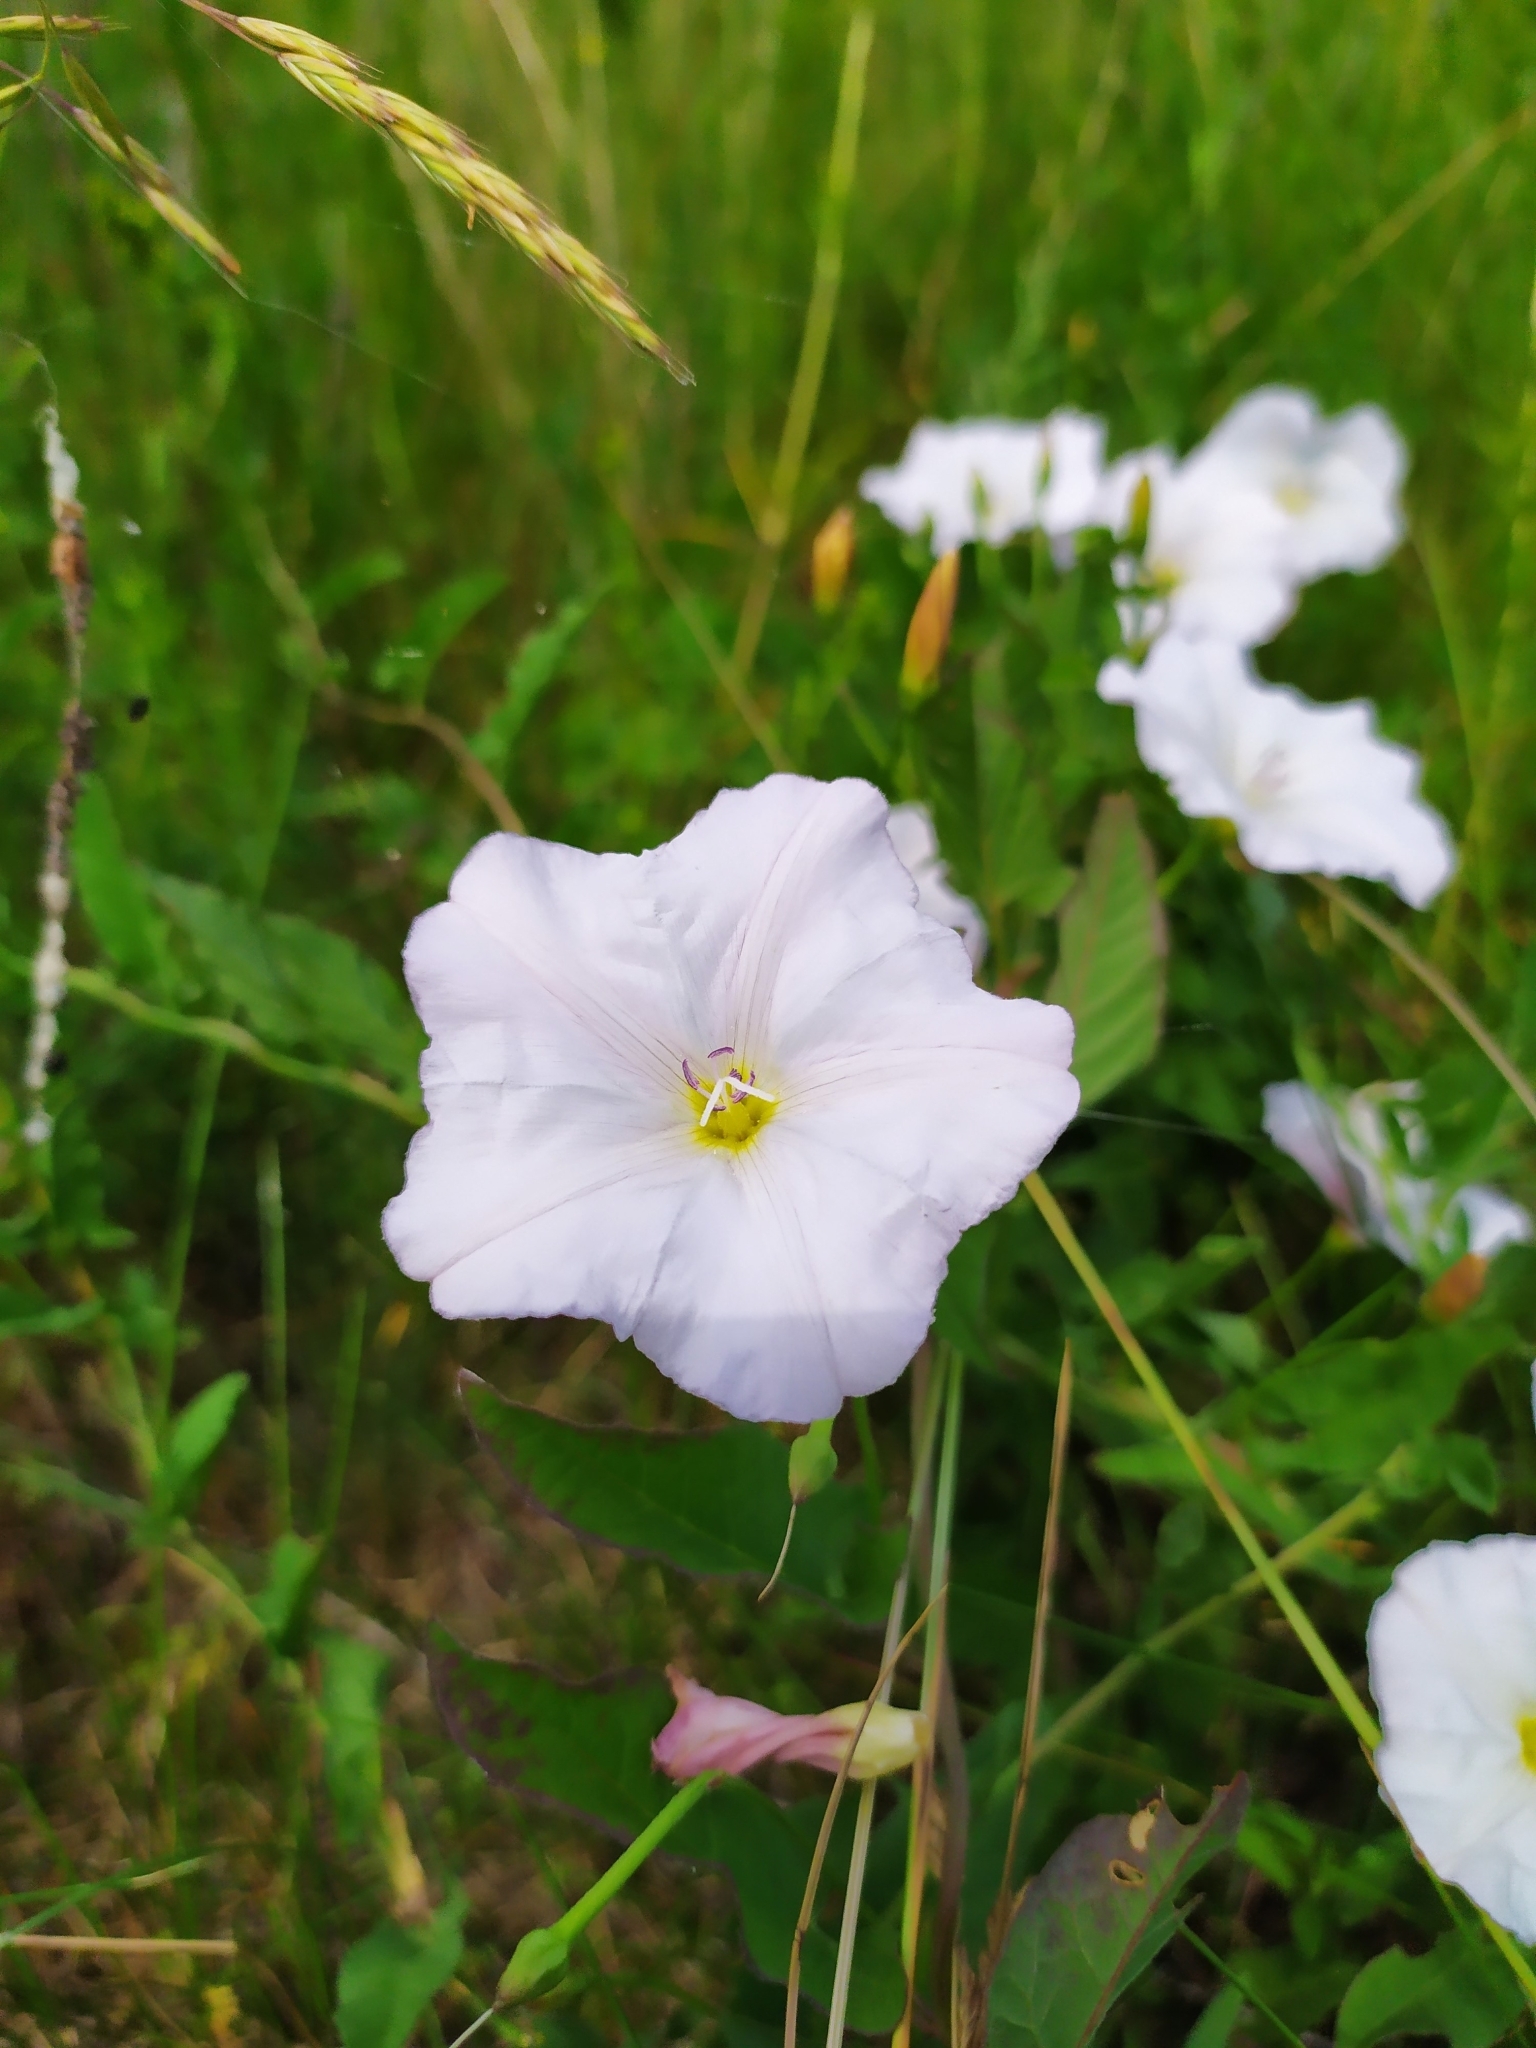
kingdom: Plantae
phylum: Tracheophyta
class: Magnoliopsida
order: Solanales
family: Convolvulaceae
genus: Convolvulus
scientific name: Convolvulus arvensis
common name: Field bindweed
